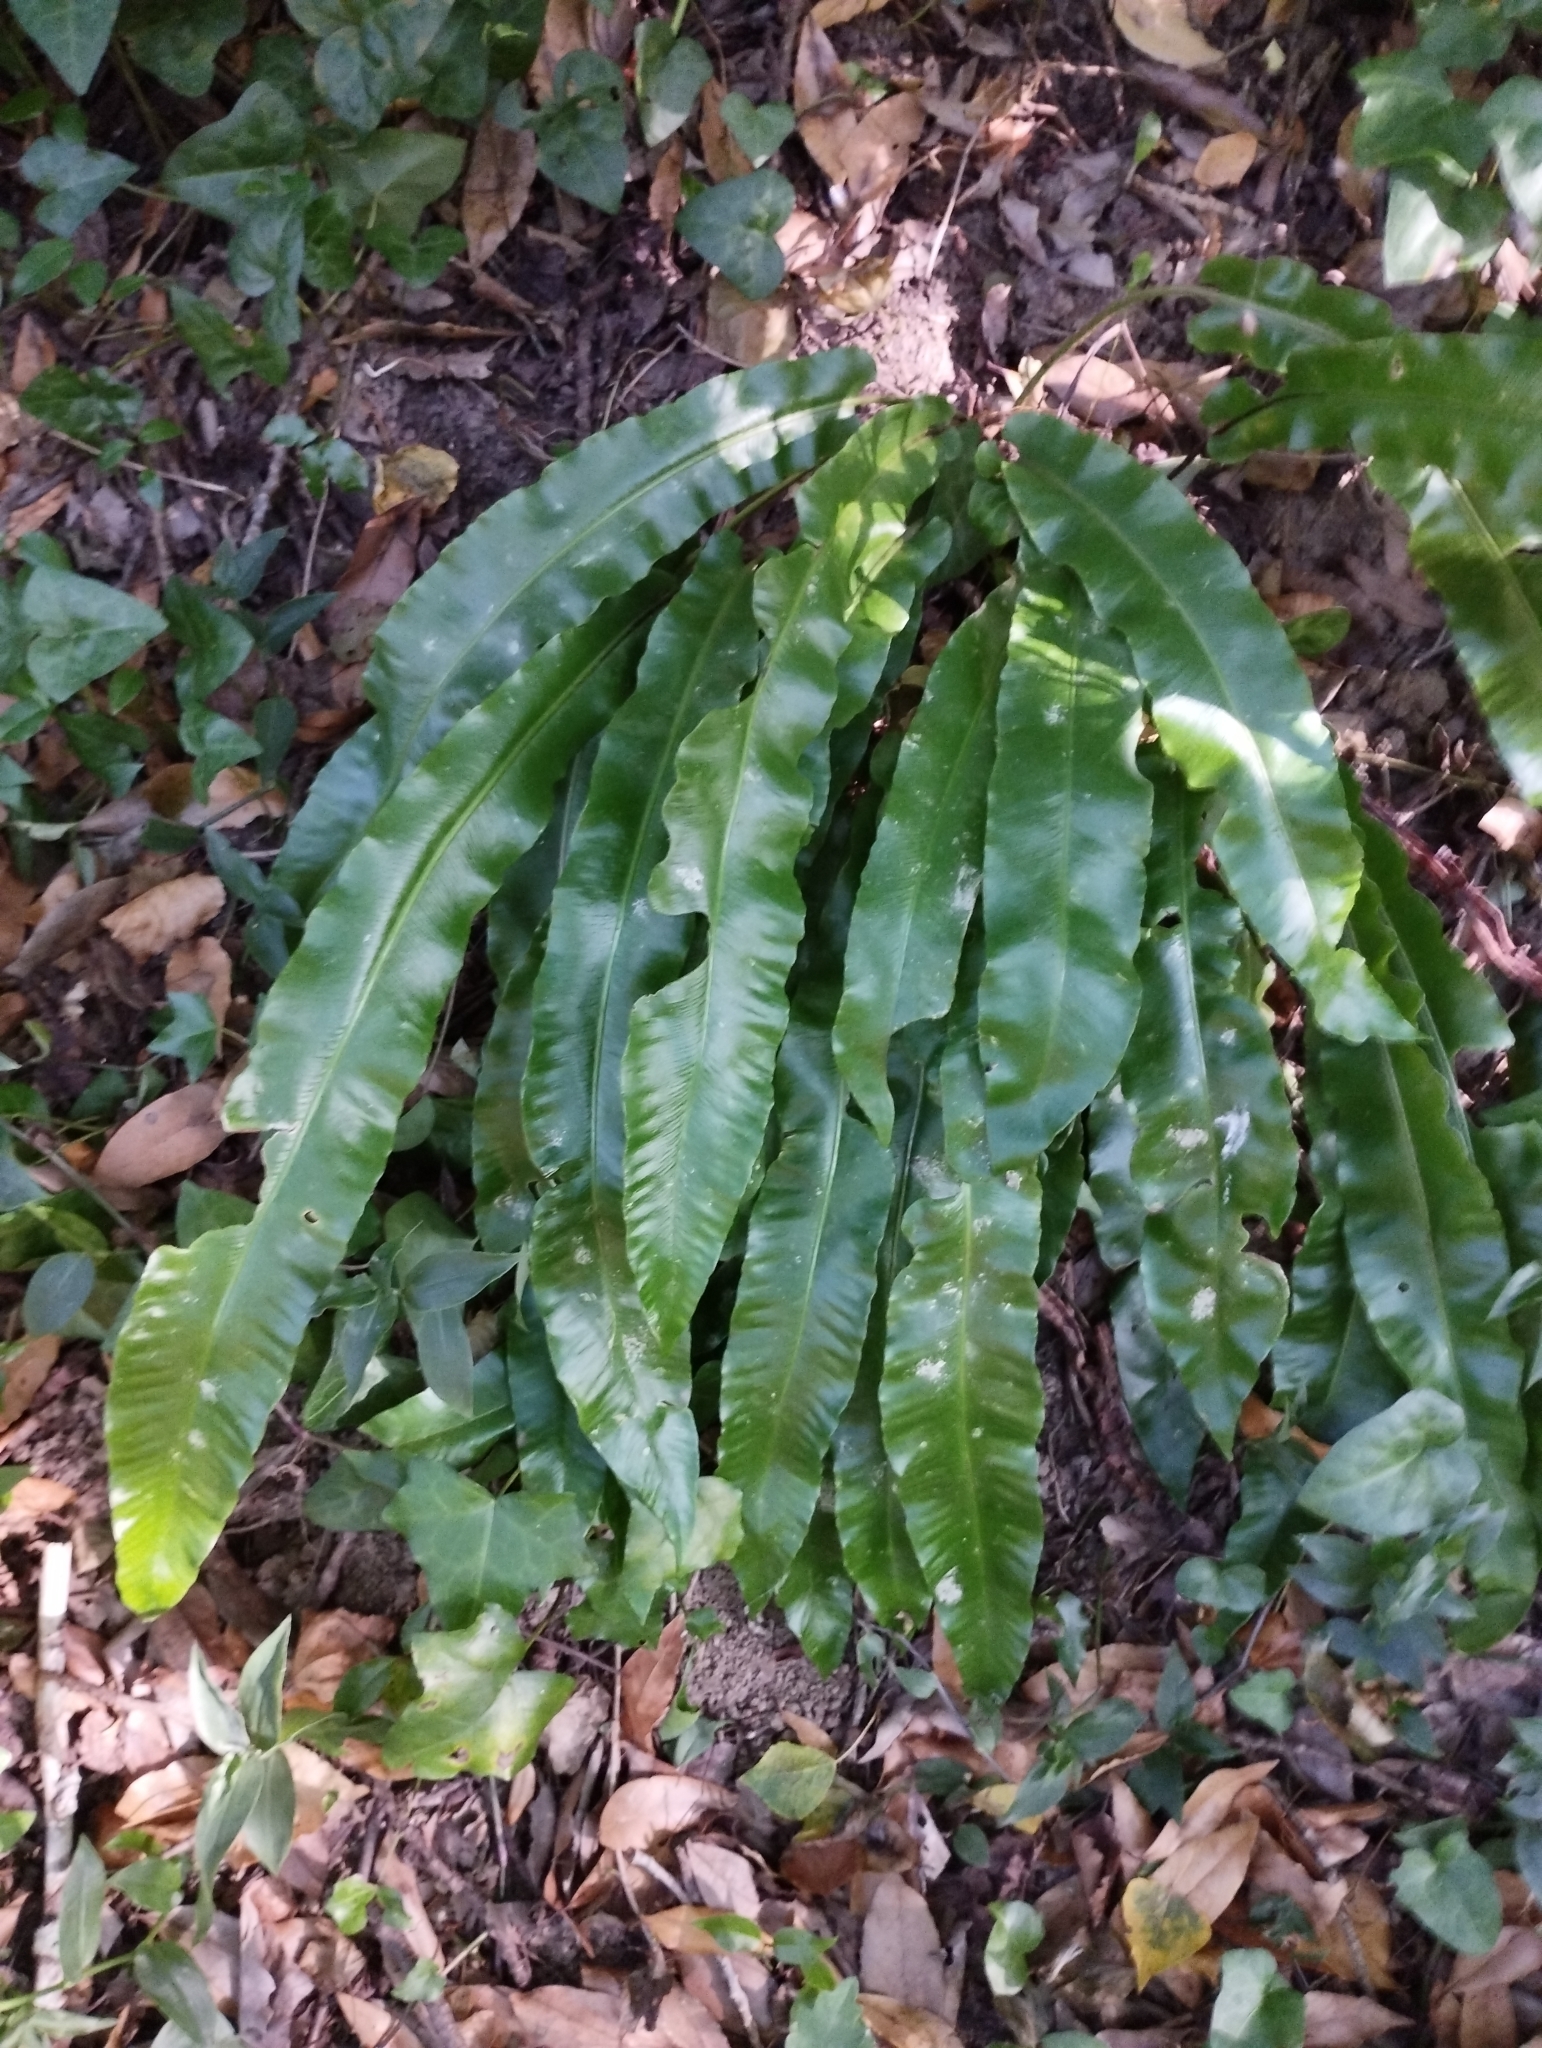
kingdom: Plantae
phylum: Tracheophyta
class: Polypodiopsida
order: Polypodiales
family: Aspleniaceae
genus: Asplenium
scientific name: Asplenium scolopendrium
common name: Hart's-tongue fern
